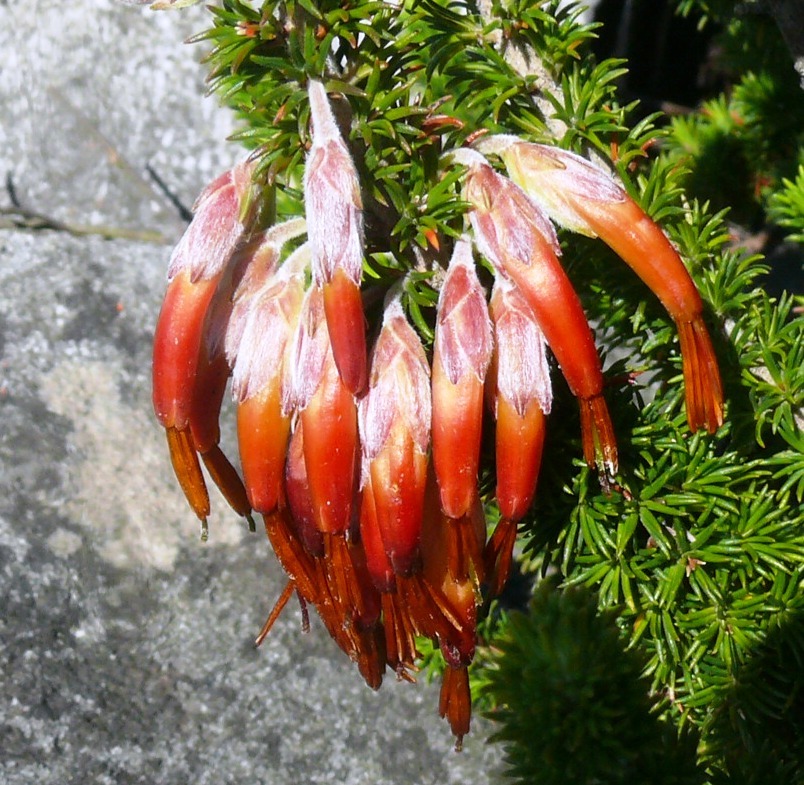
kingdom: Plantae
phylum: Tracheophyta
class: Magnoliopsida
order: Ericales
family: Ericaceae
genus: Erica
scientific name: Erica coccinea
